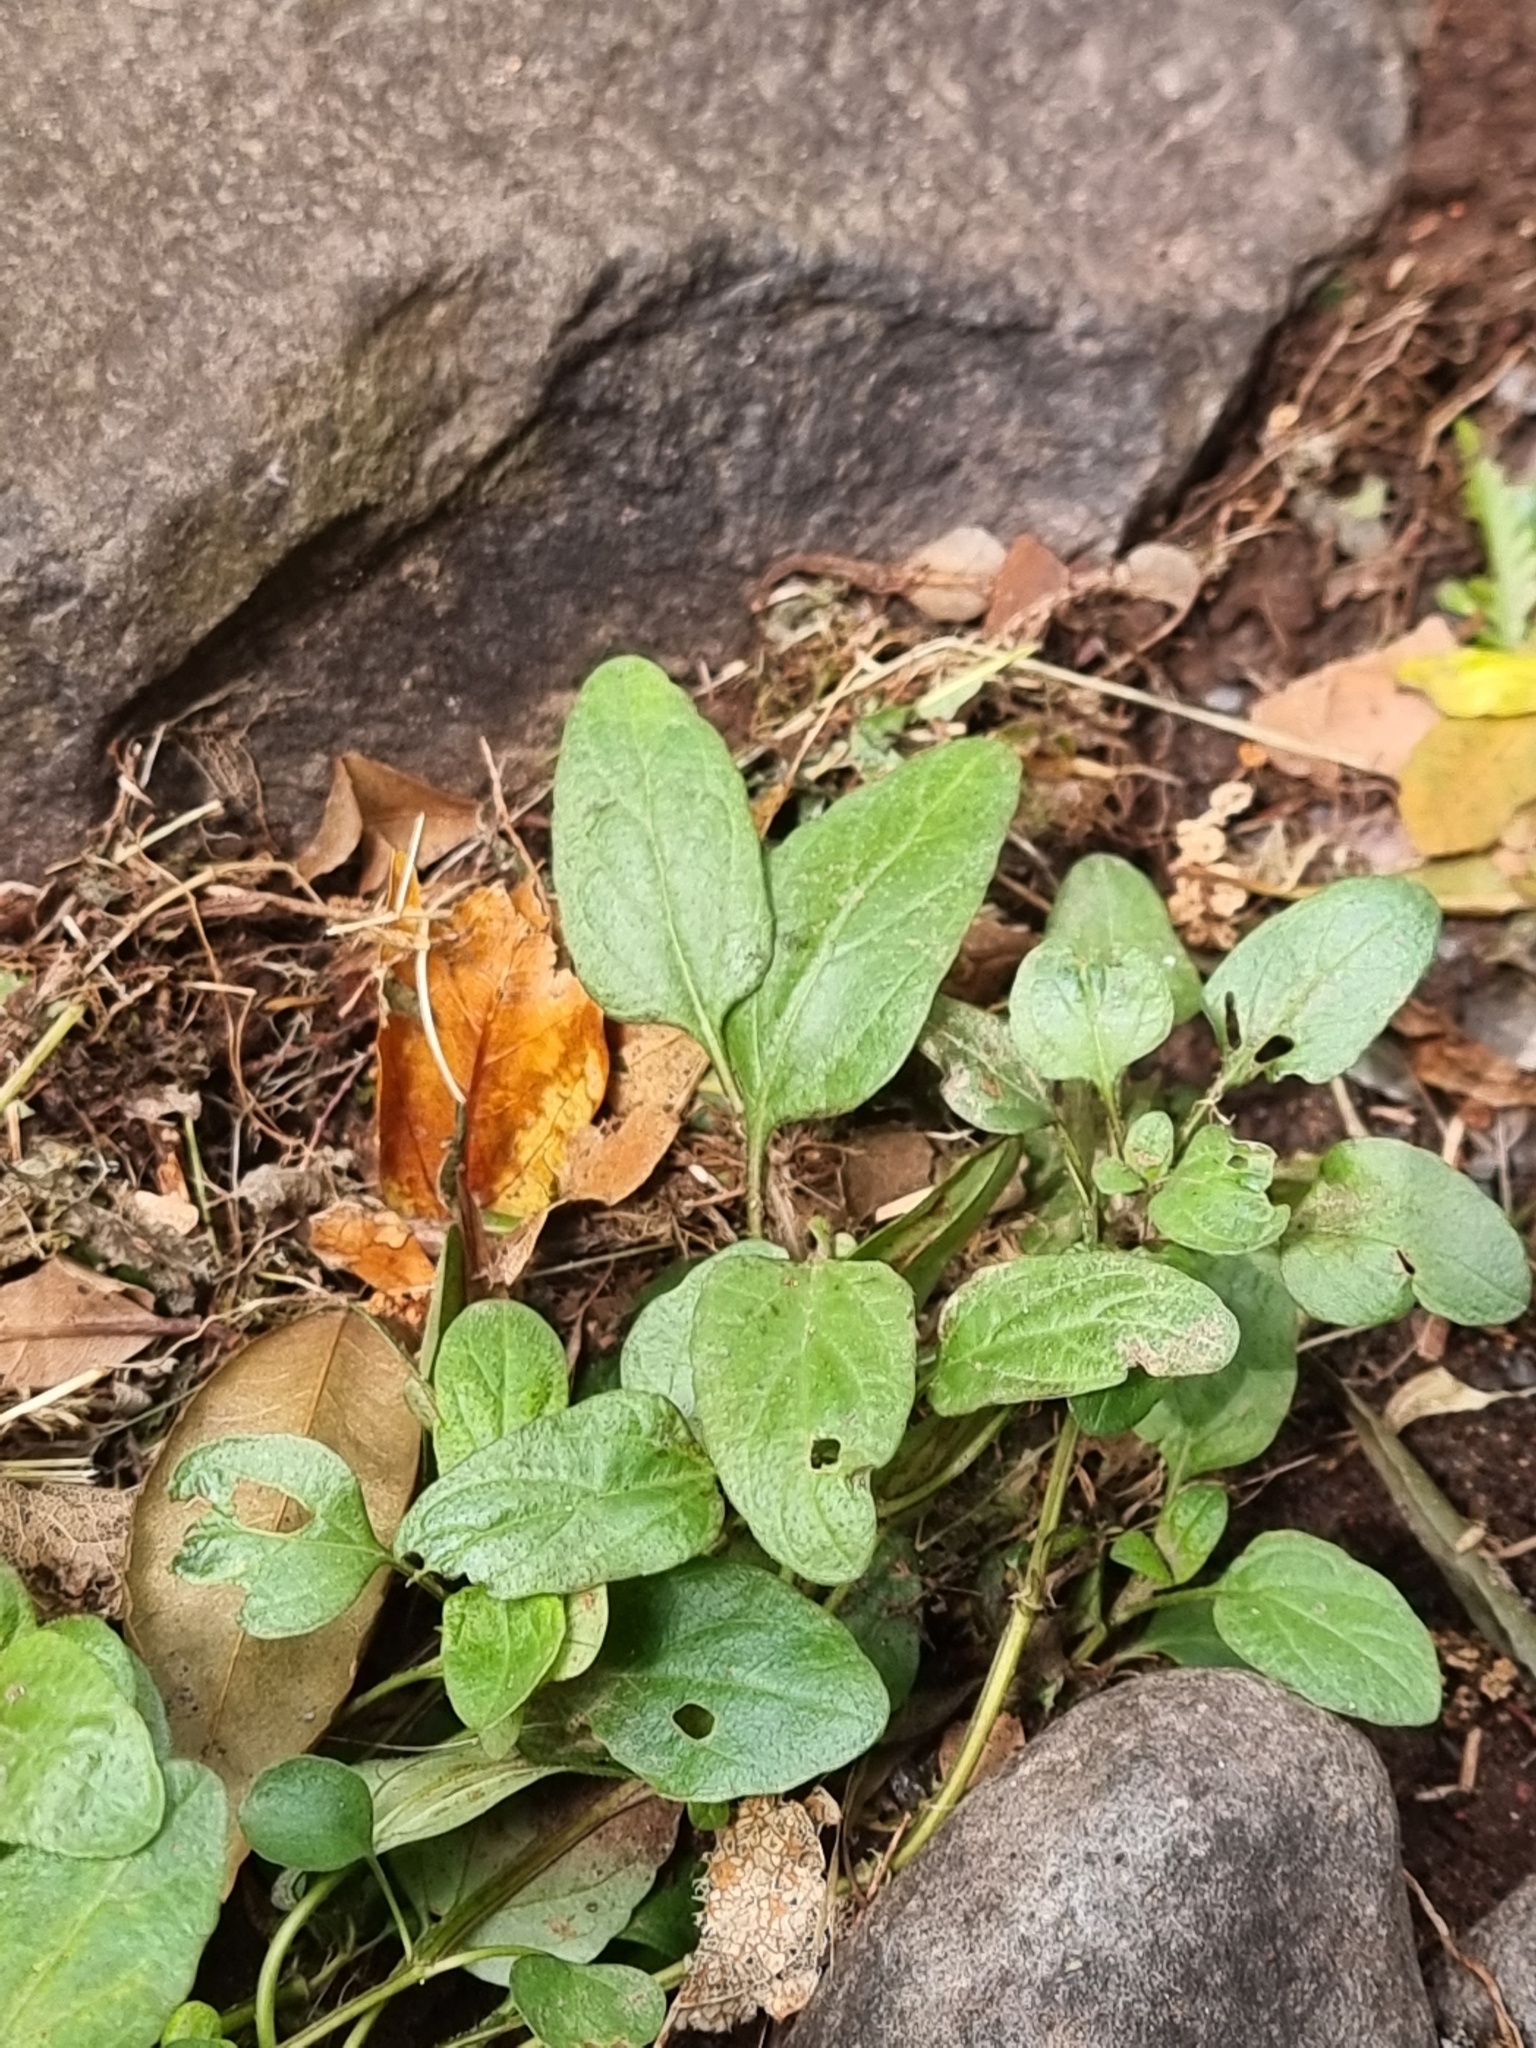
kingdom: Plantae
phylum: Tracheophyta
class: Magnoliopsida
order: Lamiales
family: Lamiaceae
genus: Prunella
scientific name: Prunella vulgaris
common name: Heal-all
